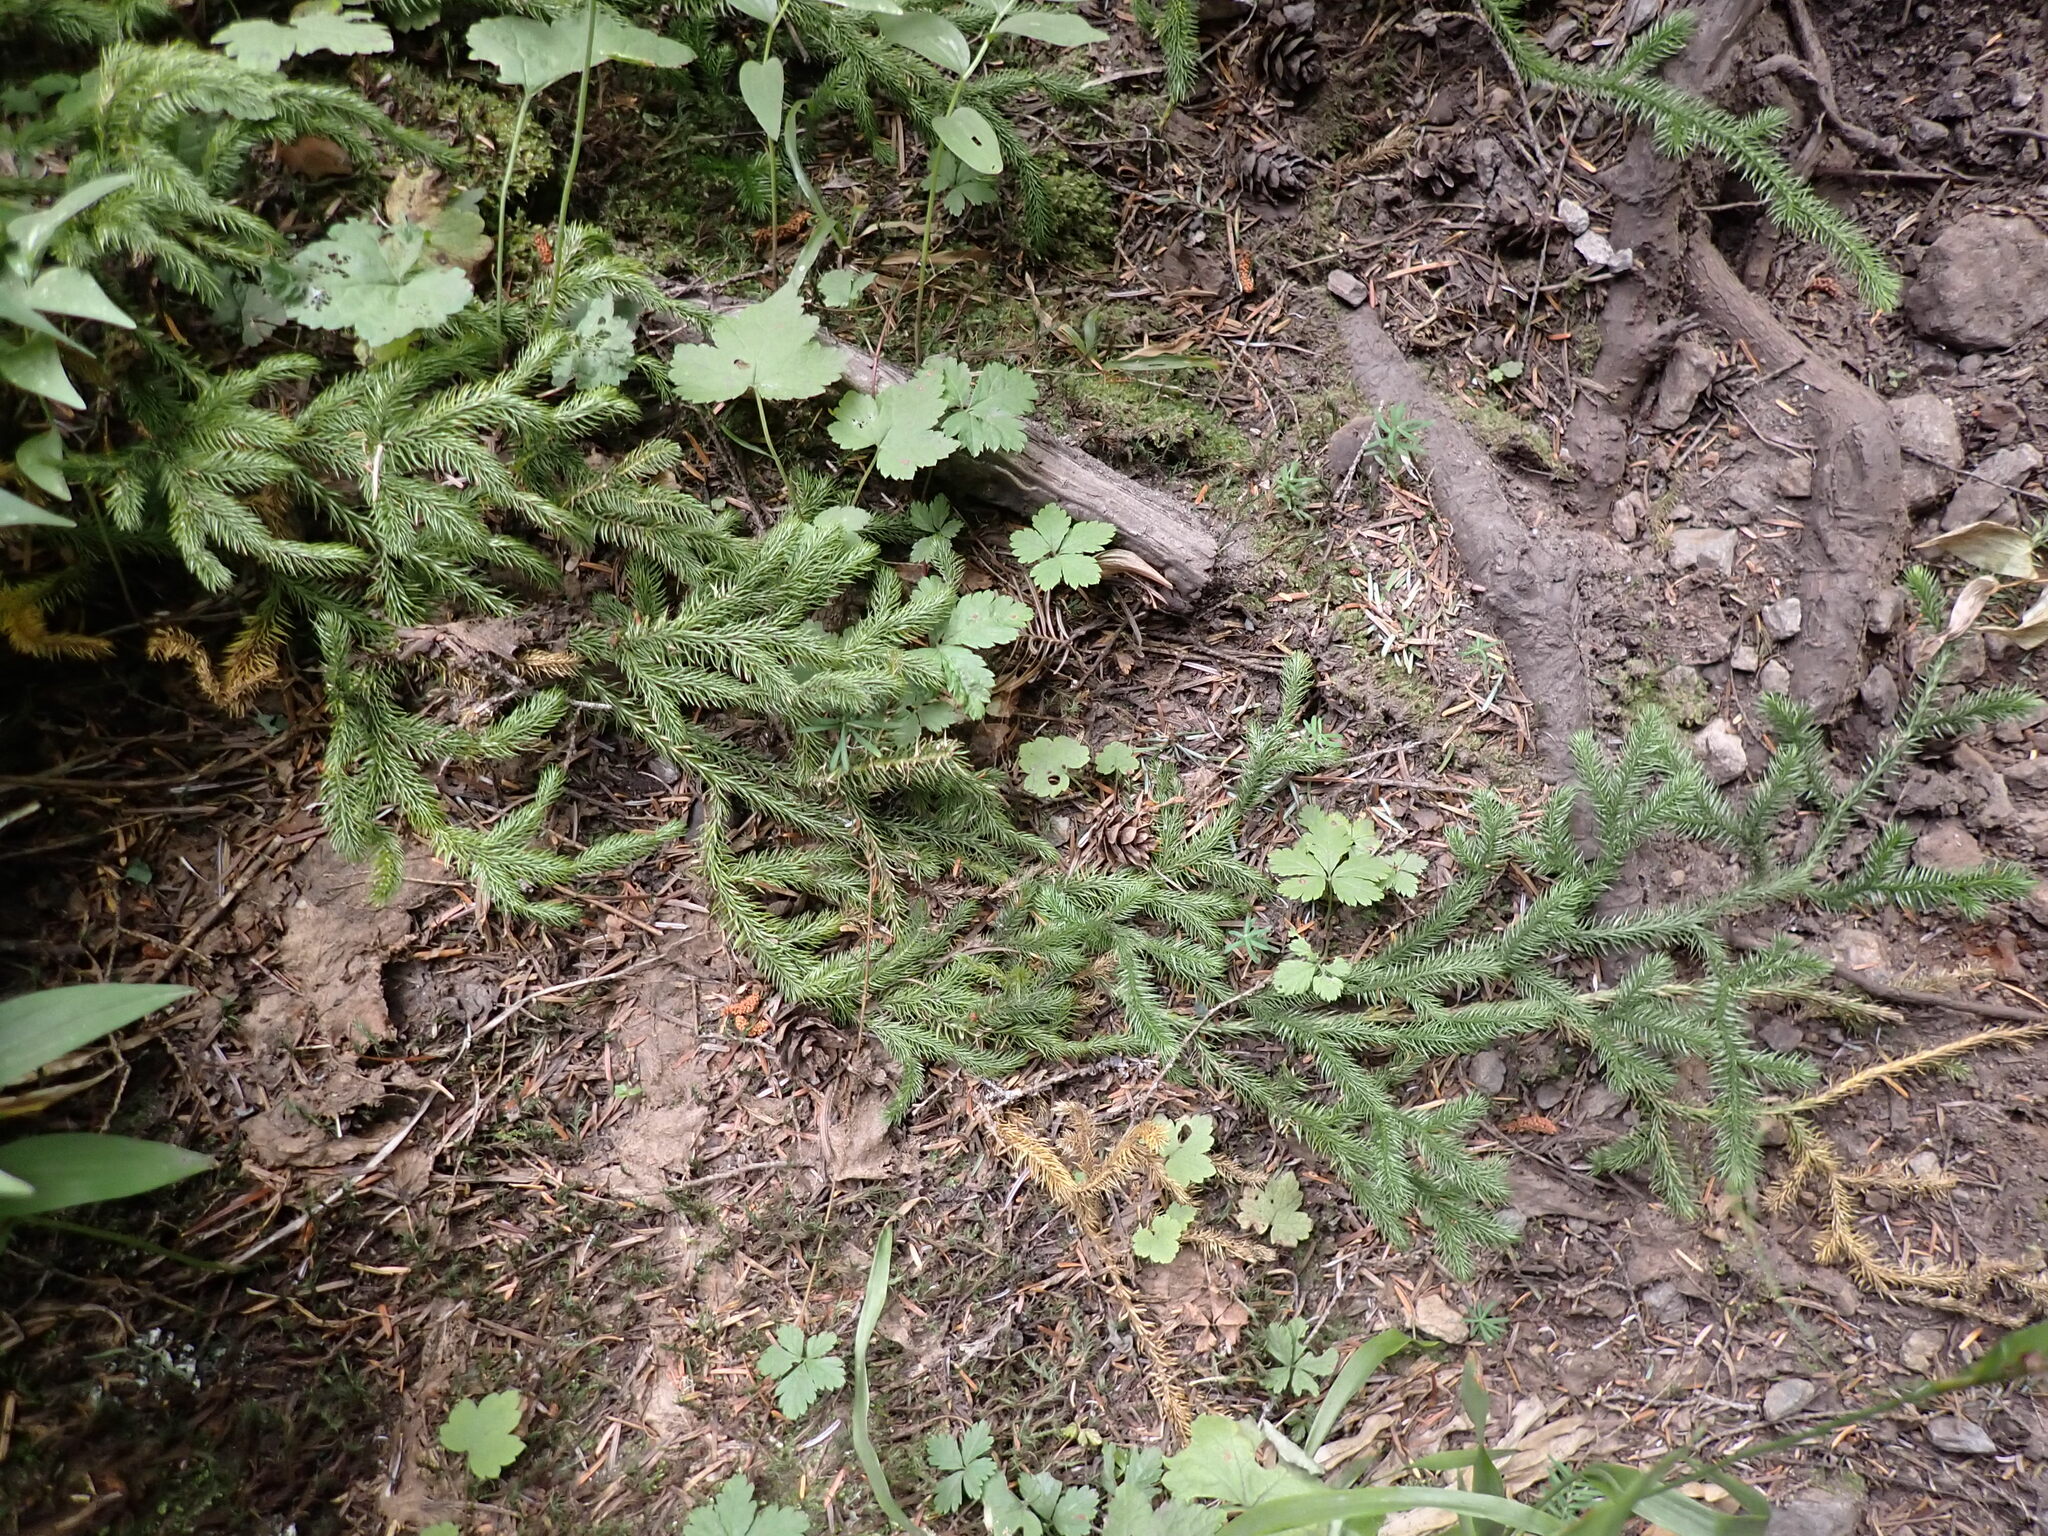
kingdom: Plantae
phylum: Tracheophyta
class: Lycopodiopsida
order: Lycopodiales
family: Lycopodiaceae
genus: Lycopodium
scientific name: Lycopodium clavatum
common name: Stag's-horn clubmoss
